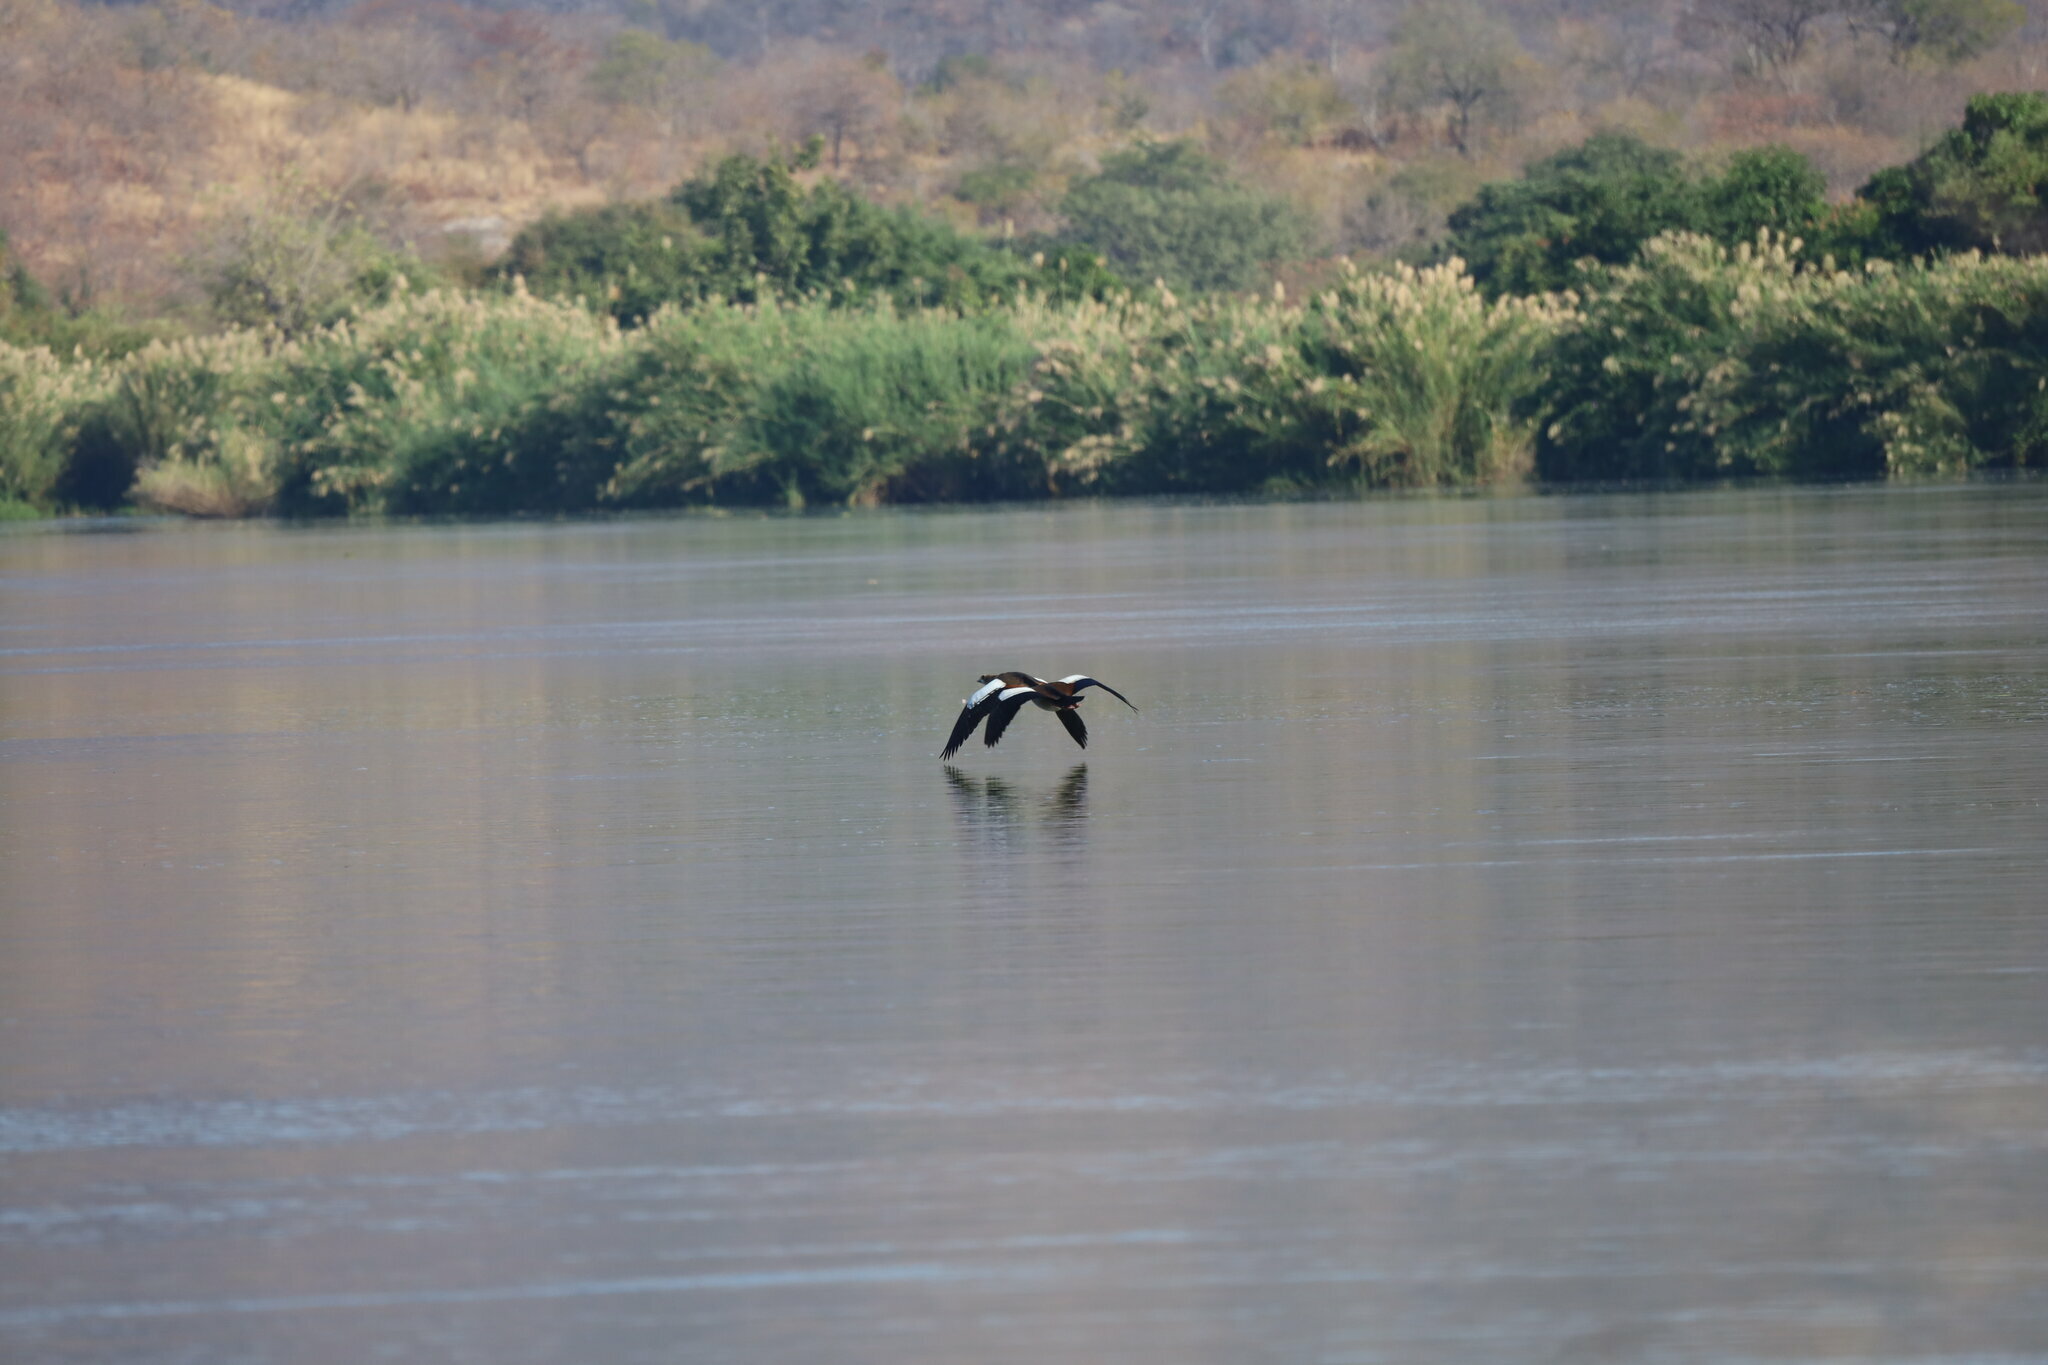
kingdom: Animalia
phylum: Chordata
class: Aves
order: Anseriformes
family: Anatidae
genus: Alopochen
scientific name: Alopochen aegyptiaca
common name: Egyptian goose
